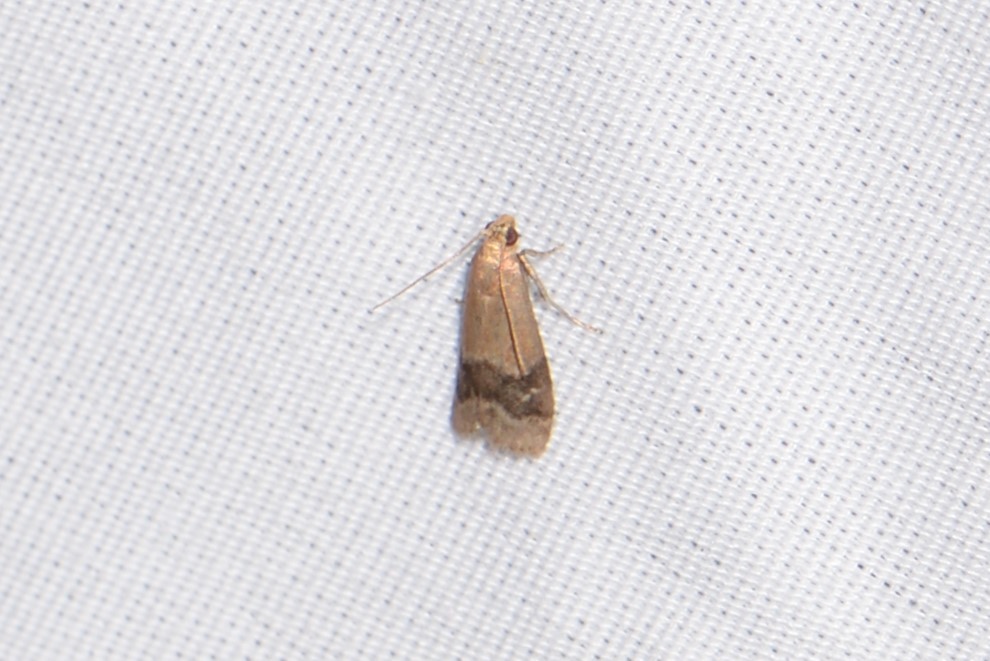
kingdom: Animalia
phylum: Arthropoda
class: Insecta
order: Lepidoptera
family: Pyralidae
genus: Eulogia
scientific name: Eulogia ochrifrontella
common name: Broad-banded eulogia moth
